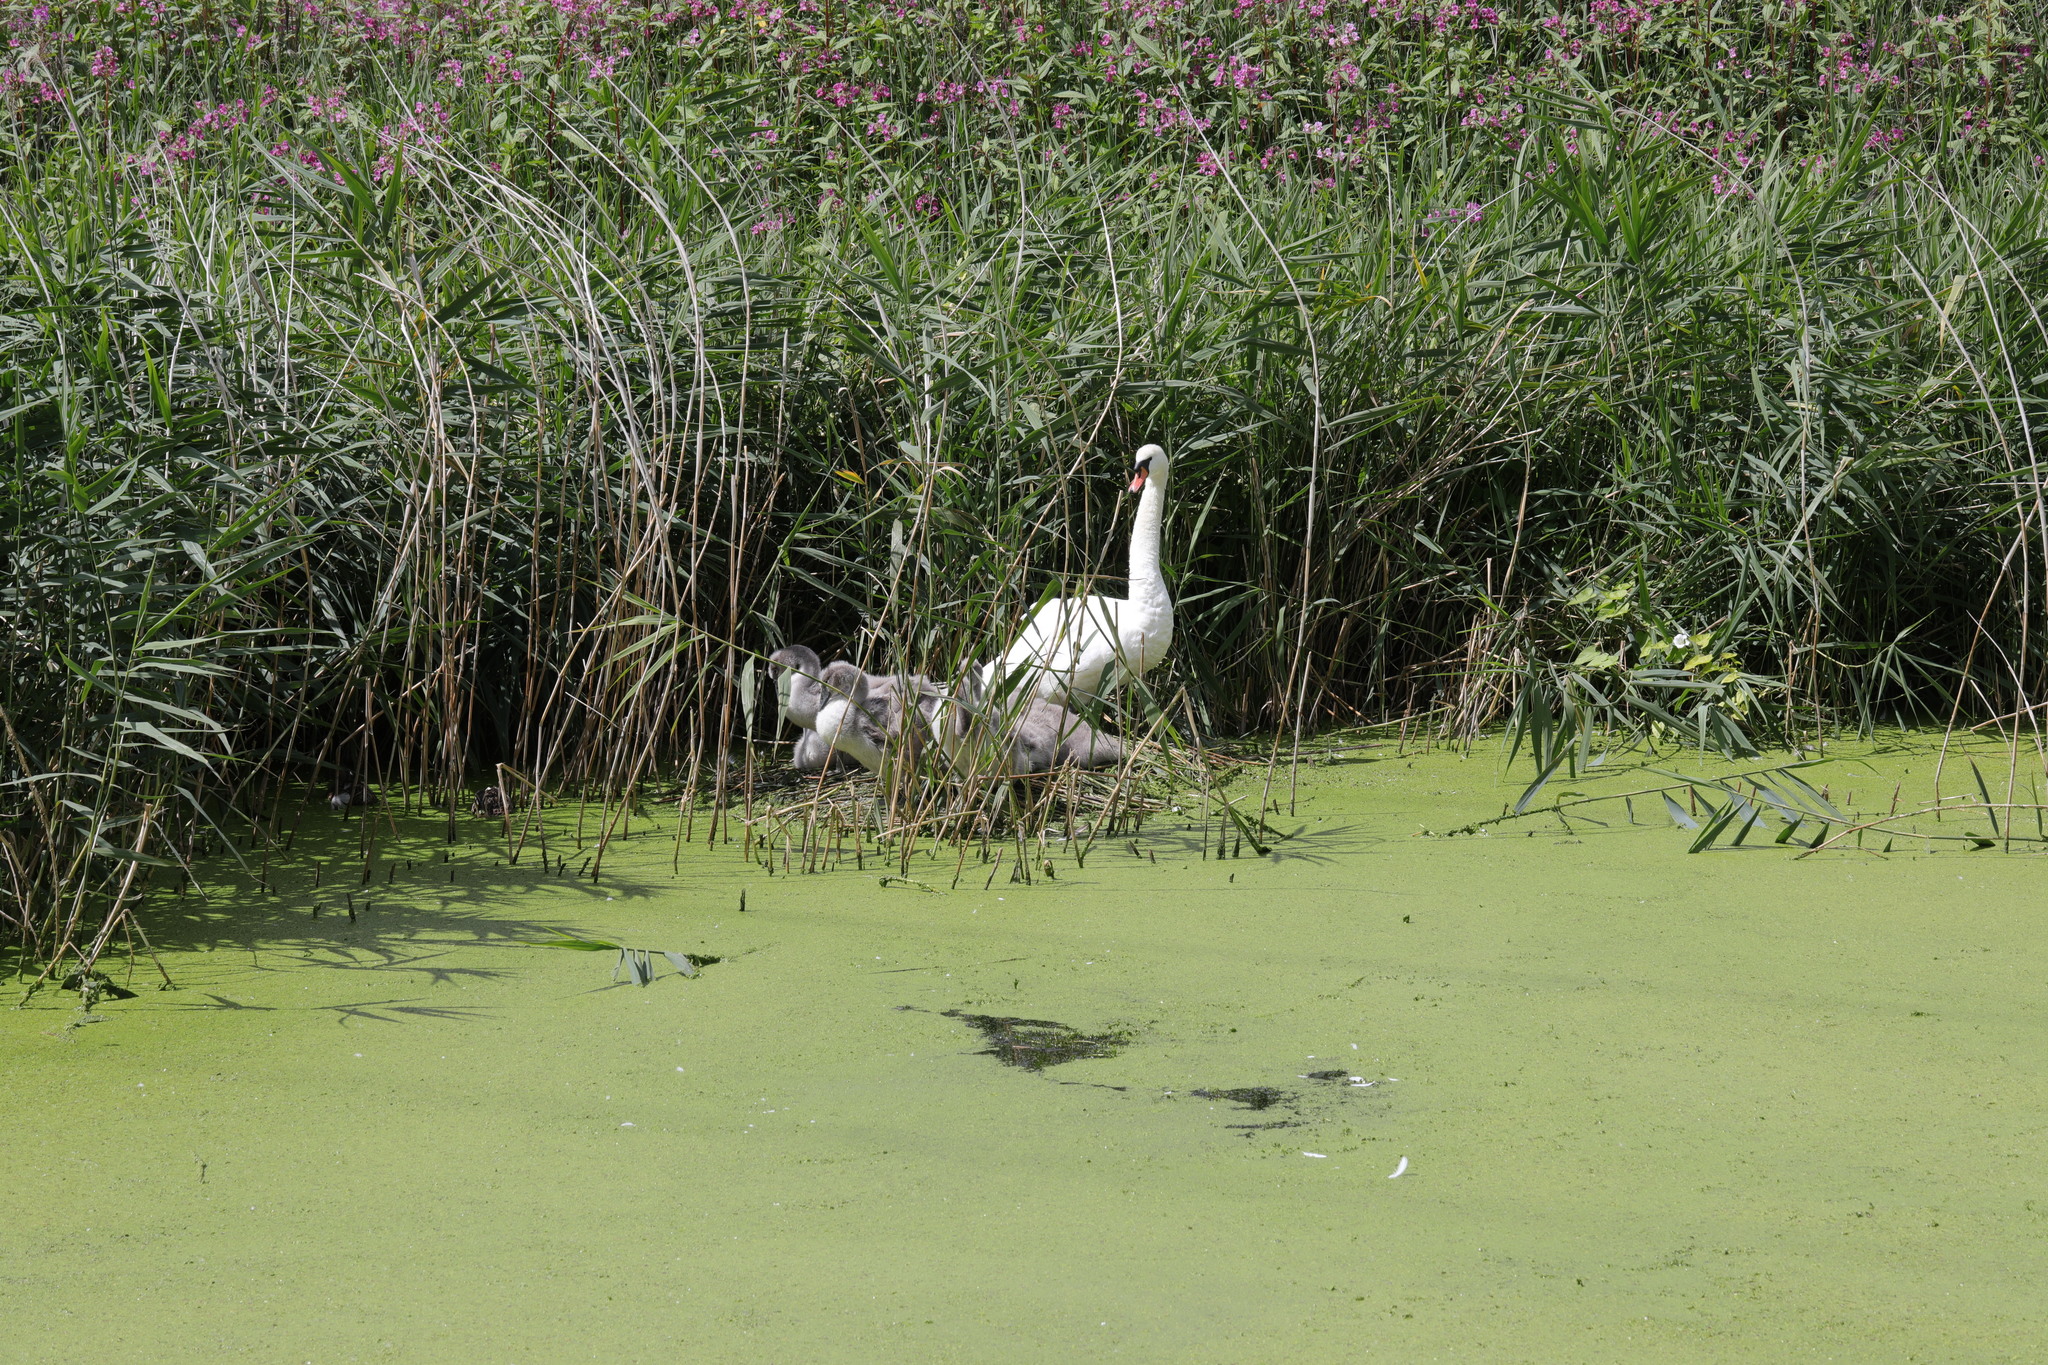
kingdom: Animalia
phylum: Chordata
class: Aves
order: Anseriformes
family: Anatidae
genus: Cygnus
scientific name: Cygnus olor
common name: Mute swan
